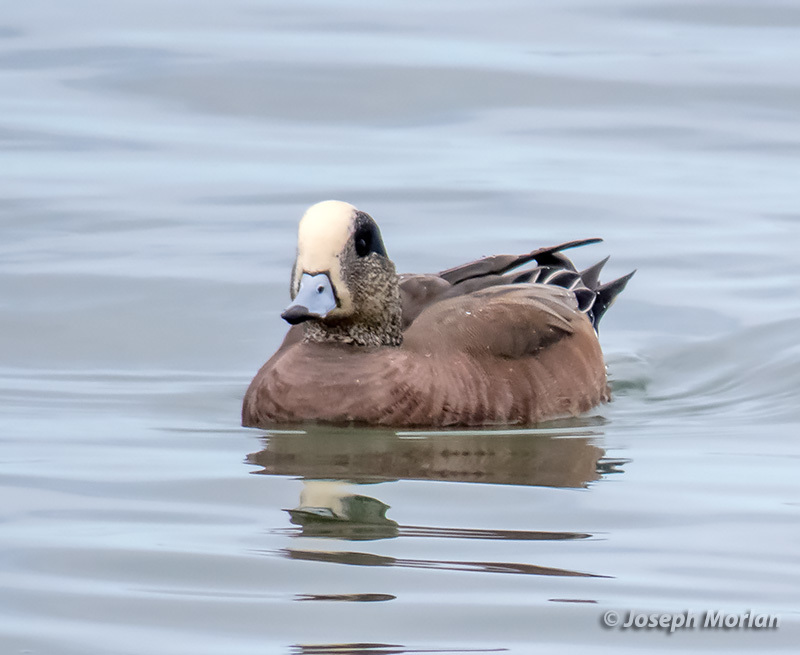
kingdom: Animalia
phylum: Chordata
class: Aves
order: Anseriformes
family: Anatidae
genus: Mareca
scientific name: Mareca americana
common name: American wigeon
